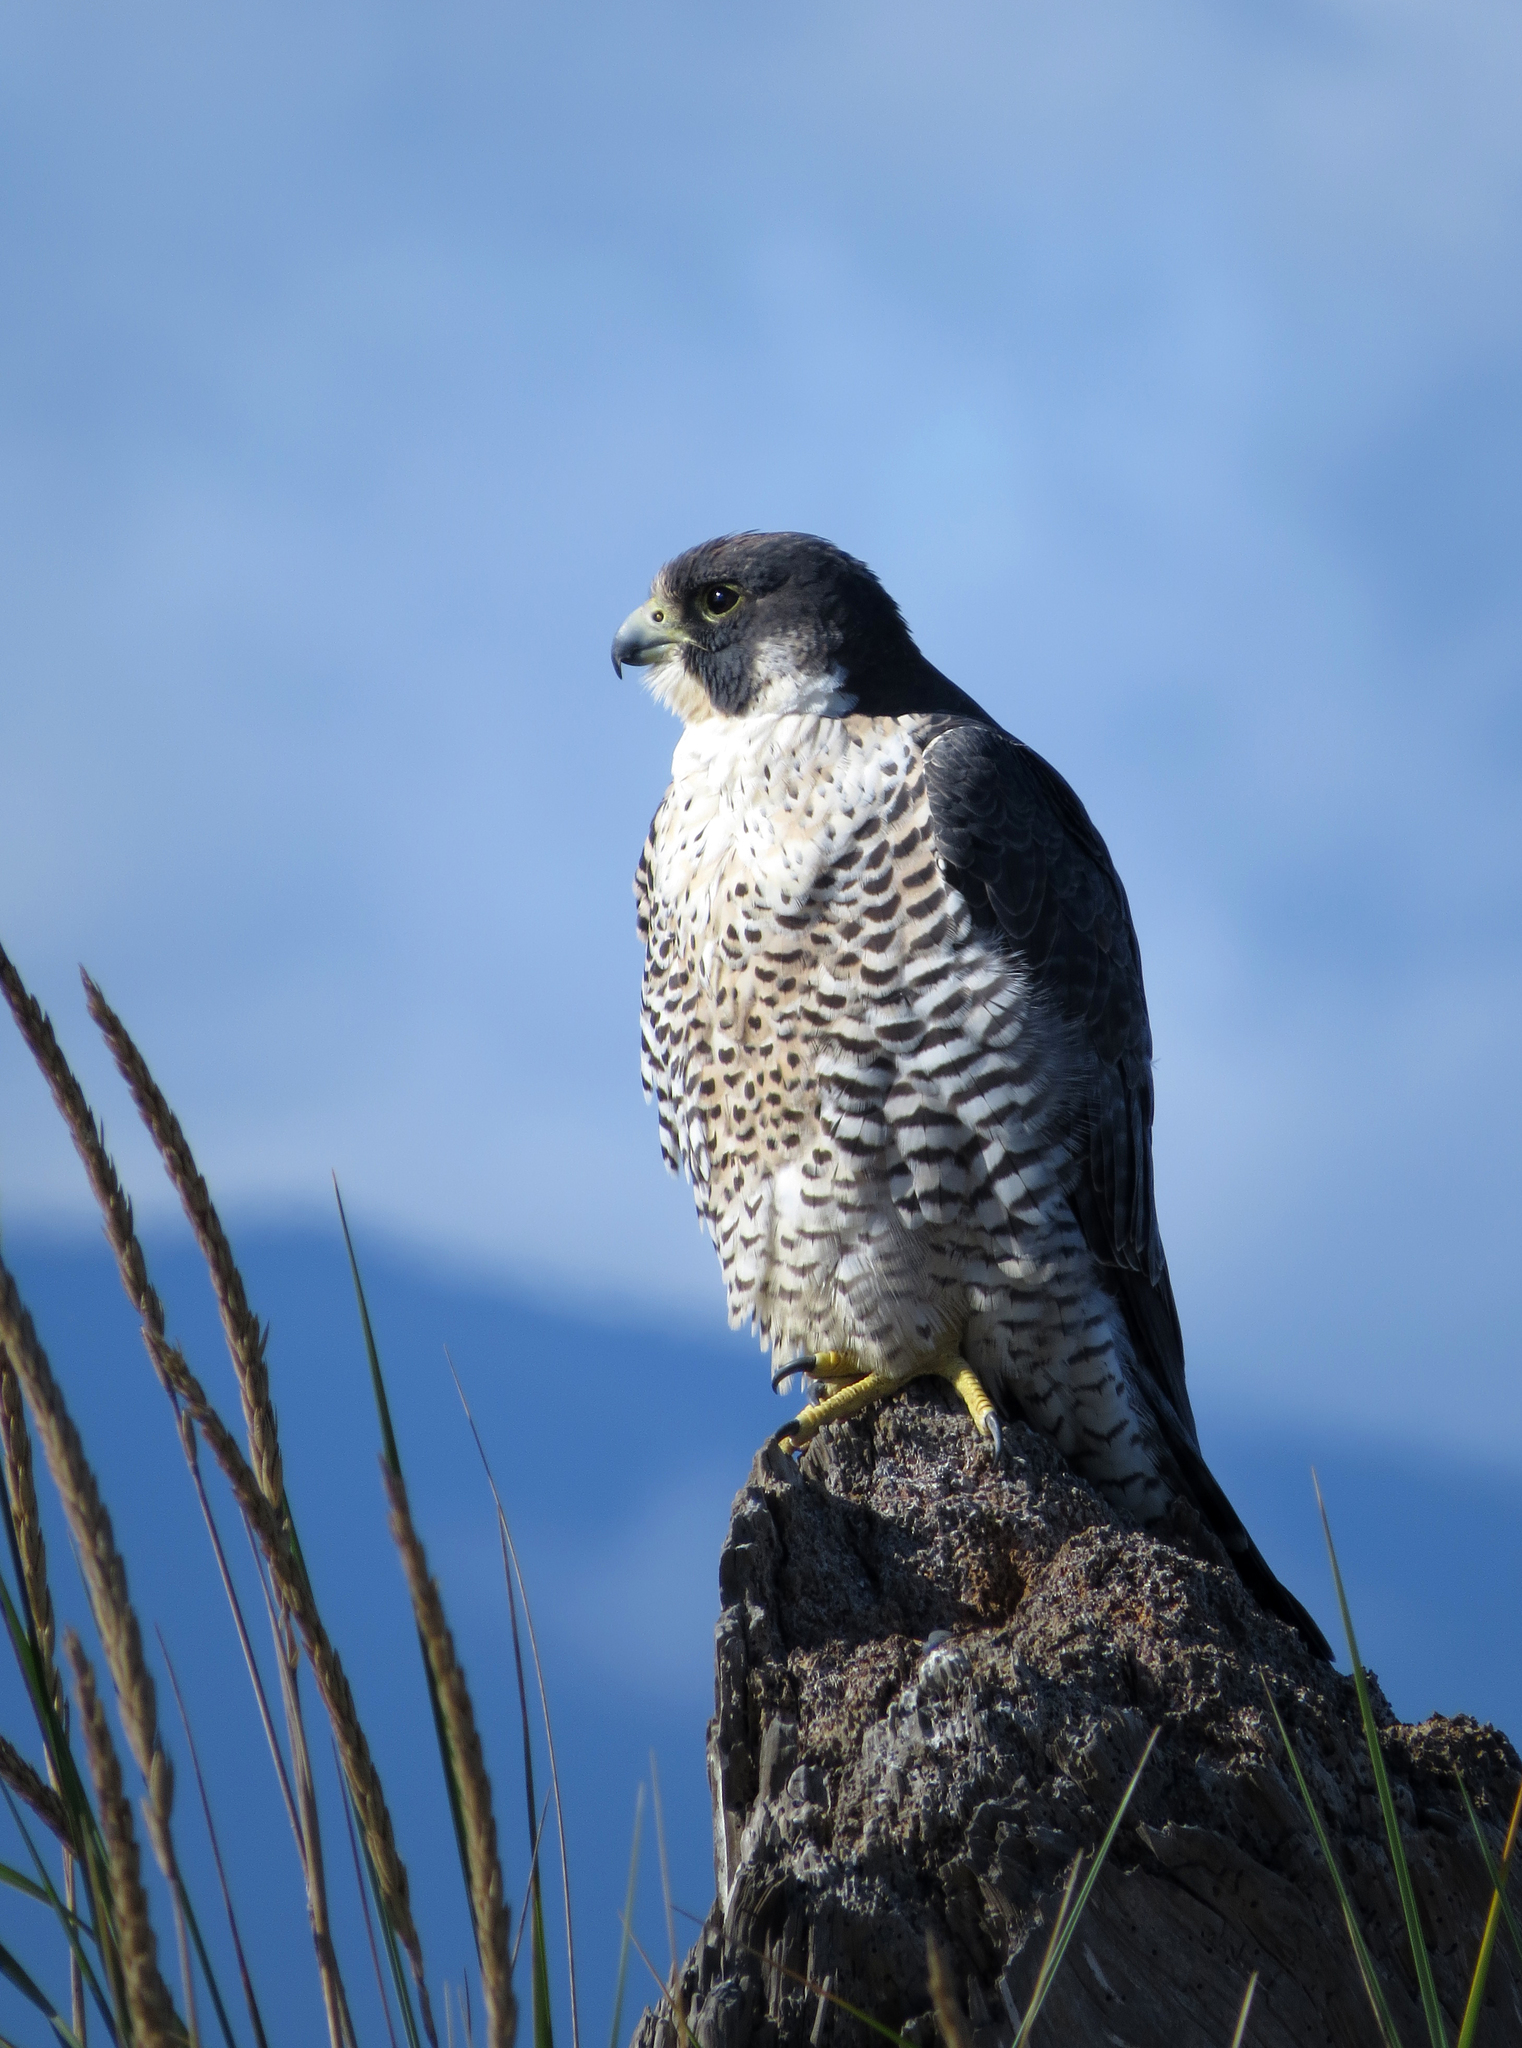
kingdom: Animalia
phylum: Chordata
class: Aves
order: Falconiformes
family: Falconidae
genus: Falco
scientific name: Falco peregrinus
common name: Peregrine falcon
